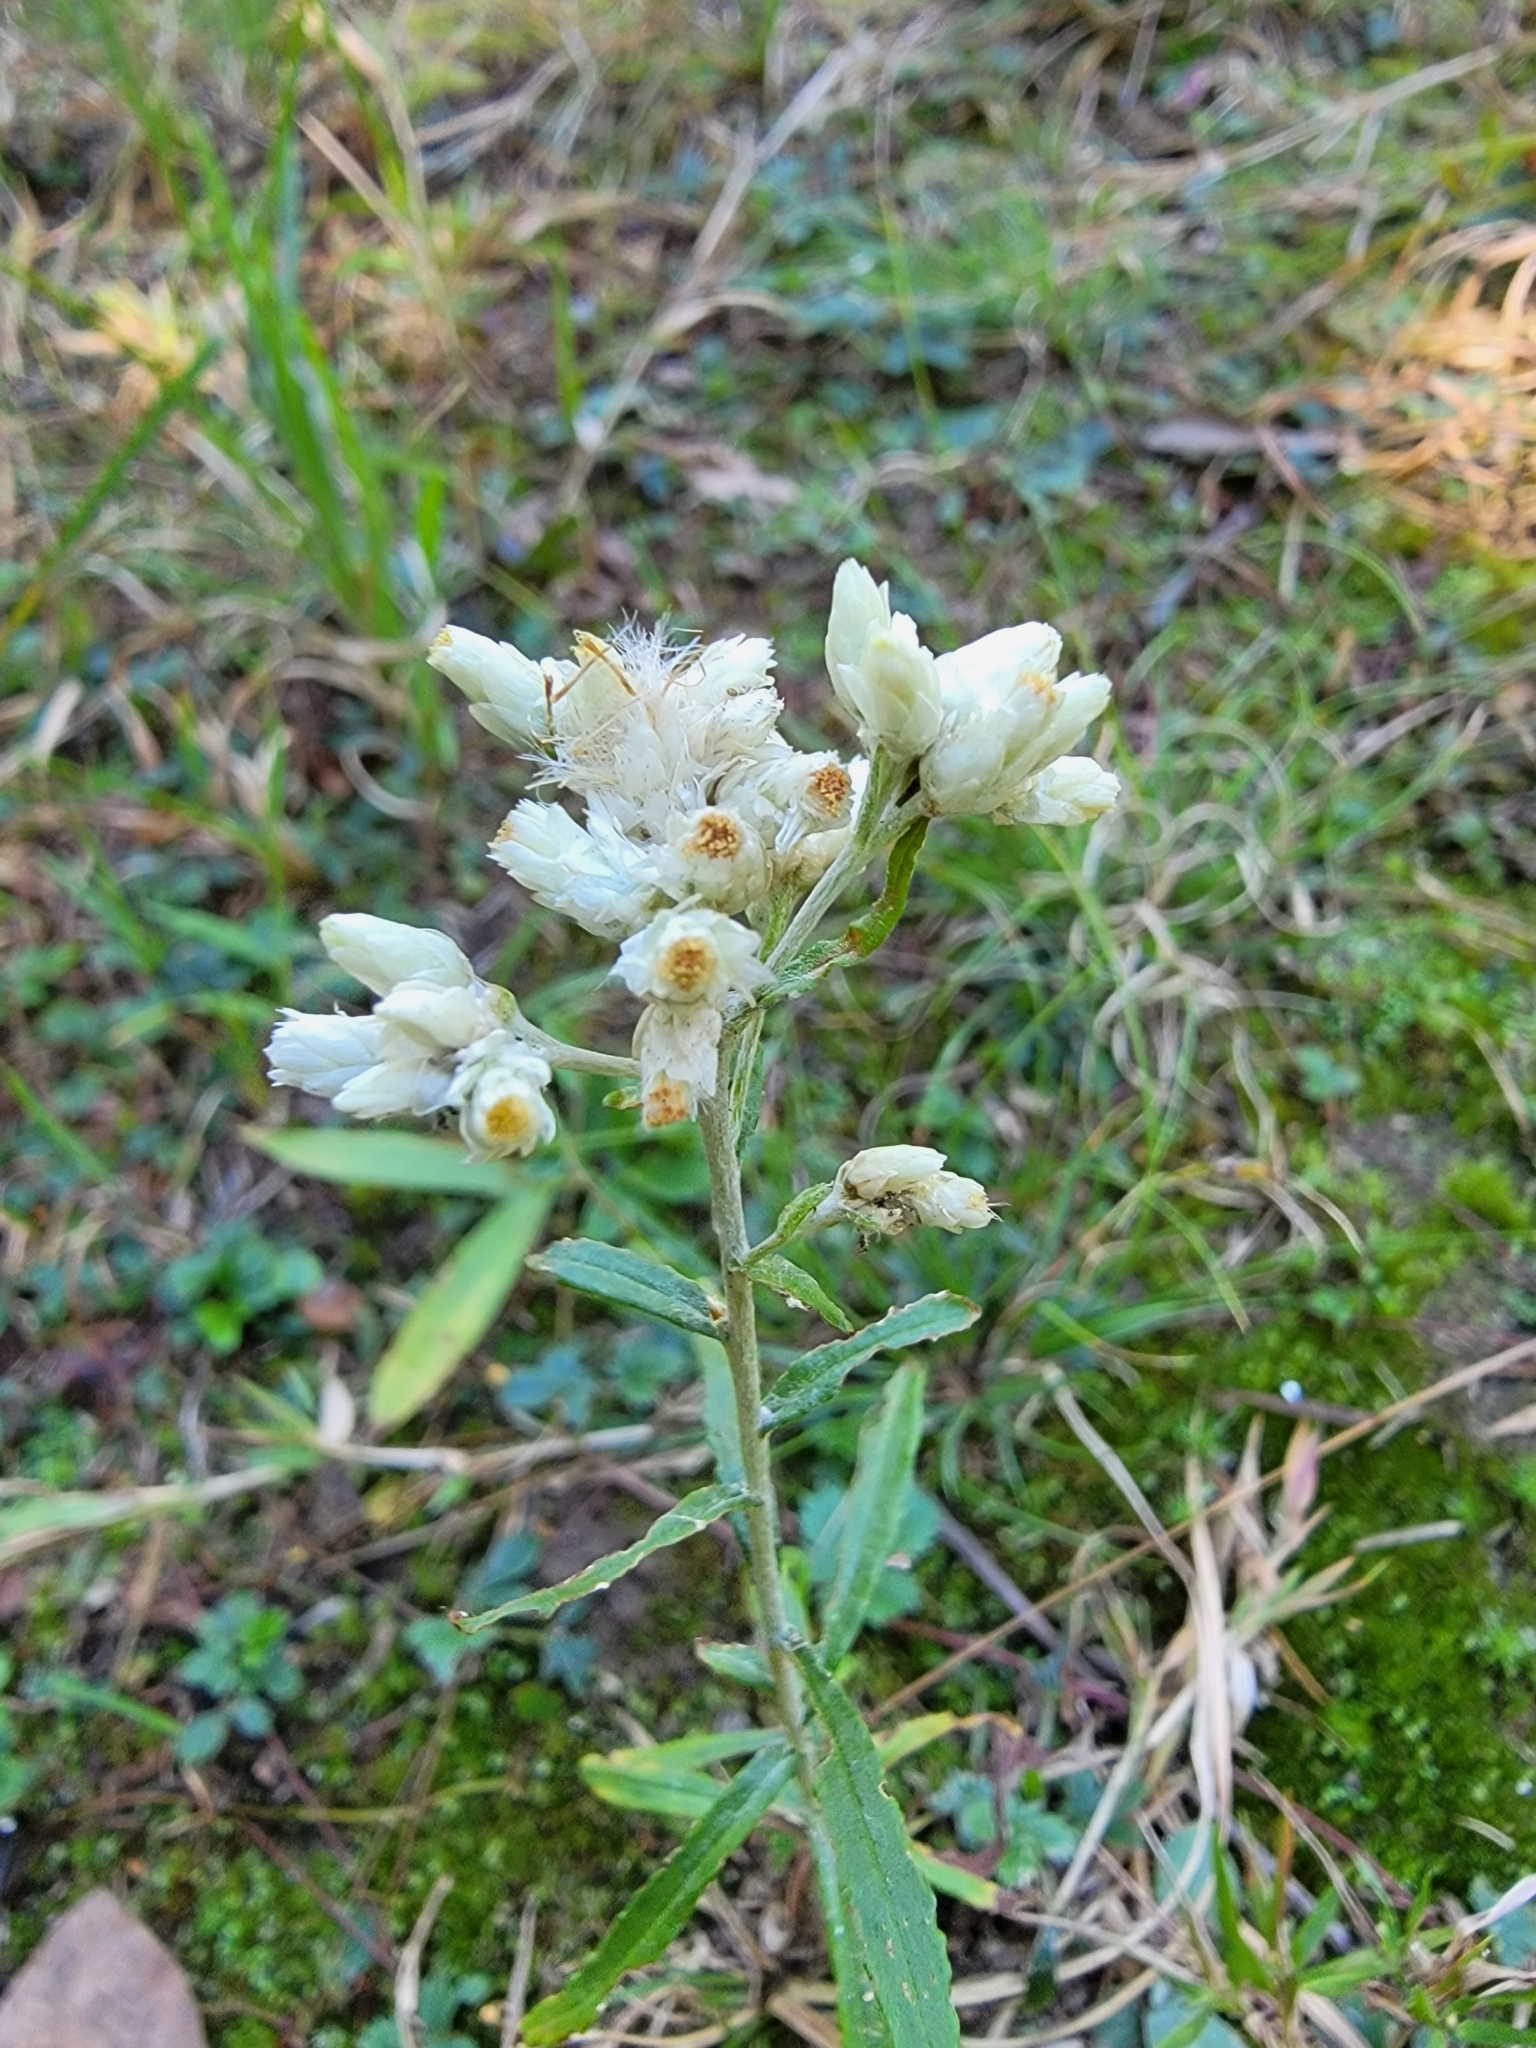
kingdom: Plantae
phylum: Tracheophyta
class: Magnoliopsida
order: Asterales
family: Asteraceae
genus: Pseudognaphalium
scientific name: Pseudognaphalium obtusifolium
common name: Eastern rabbit-tobacco
